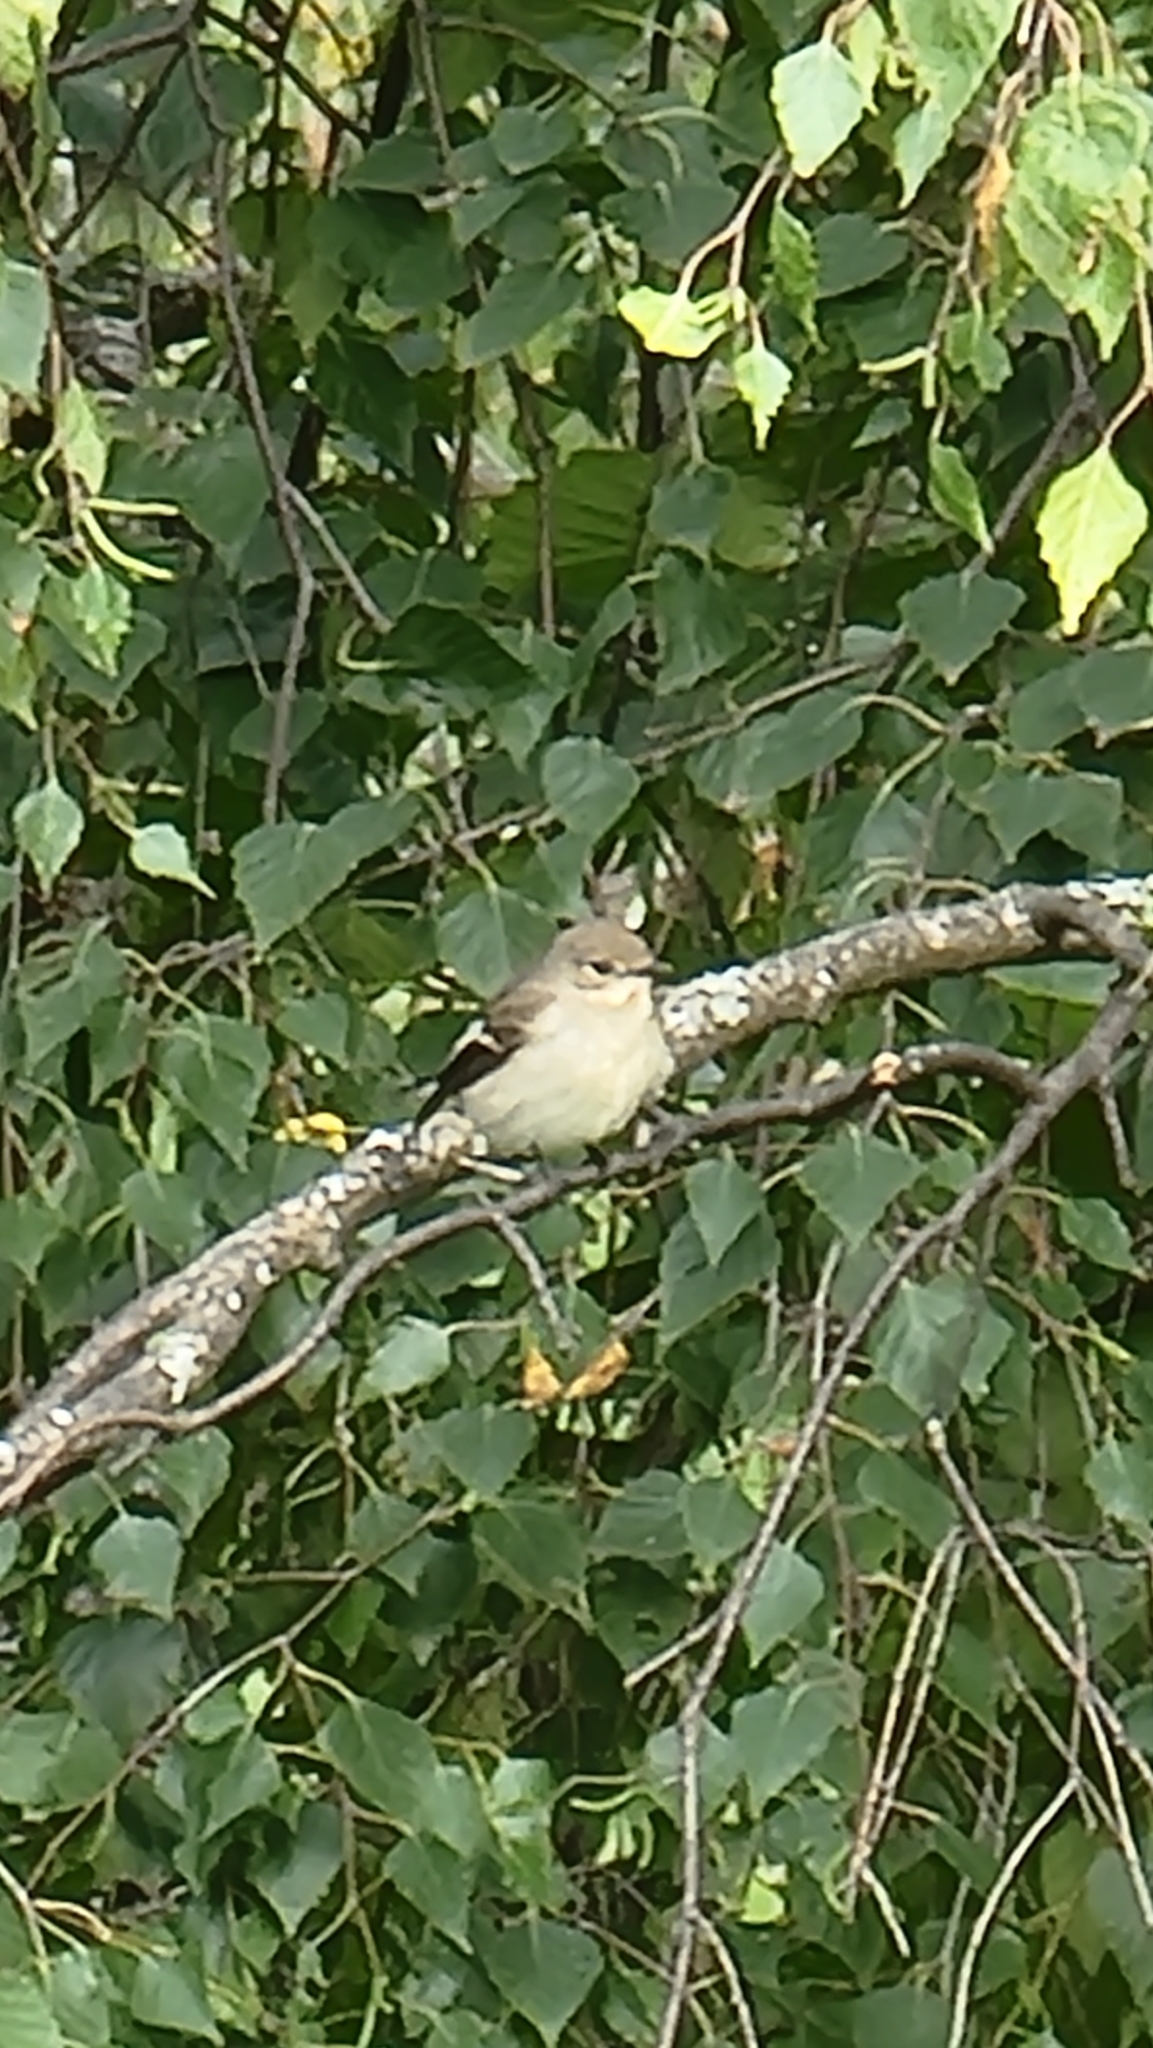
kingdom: Animalia
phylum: Chordata
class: Aves
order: Passeriformes
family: Muscicapidae
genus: Ficedula
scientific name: Ficedula hypoleuca
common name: European pied flycatcher
